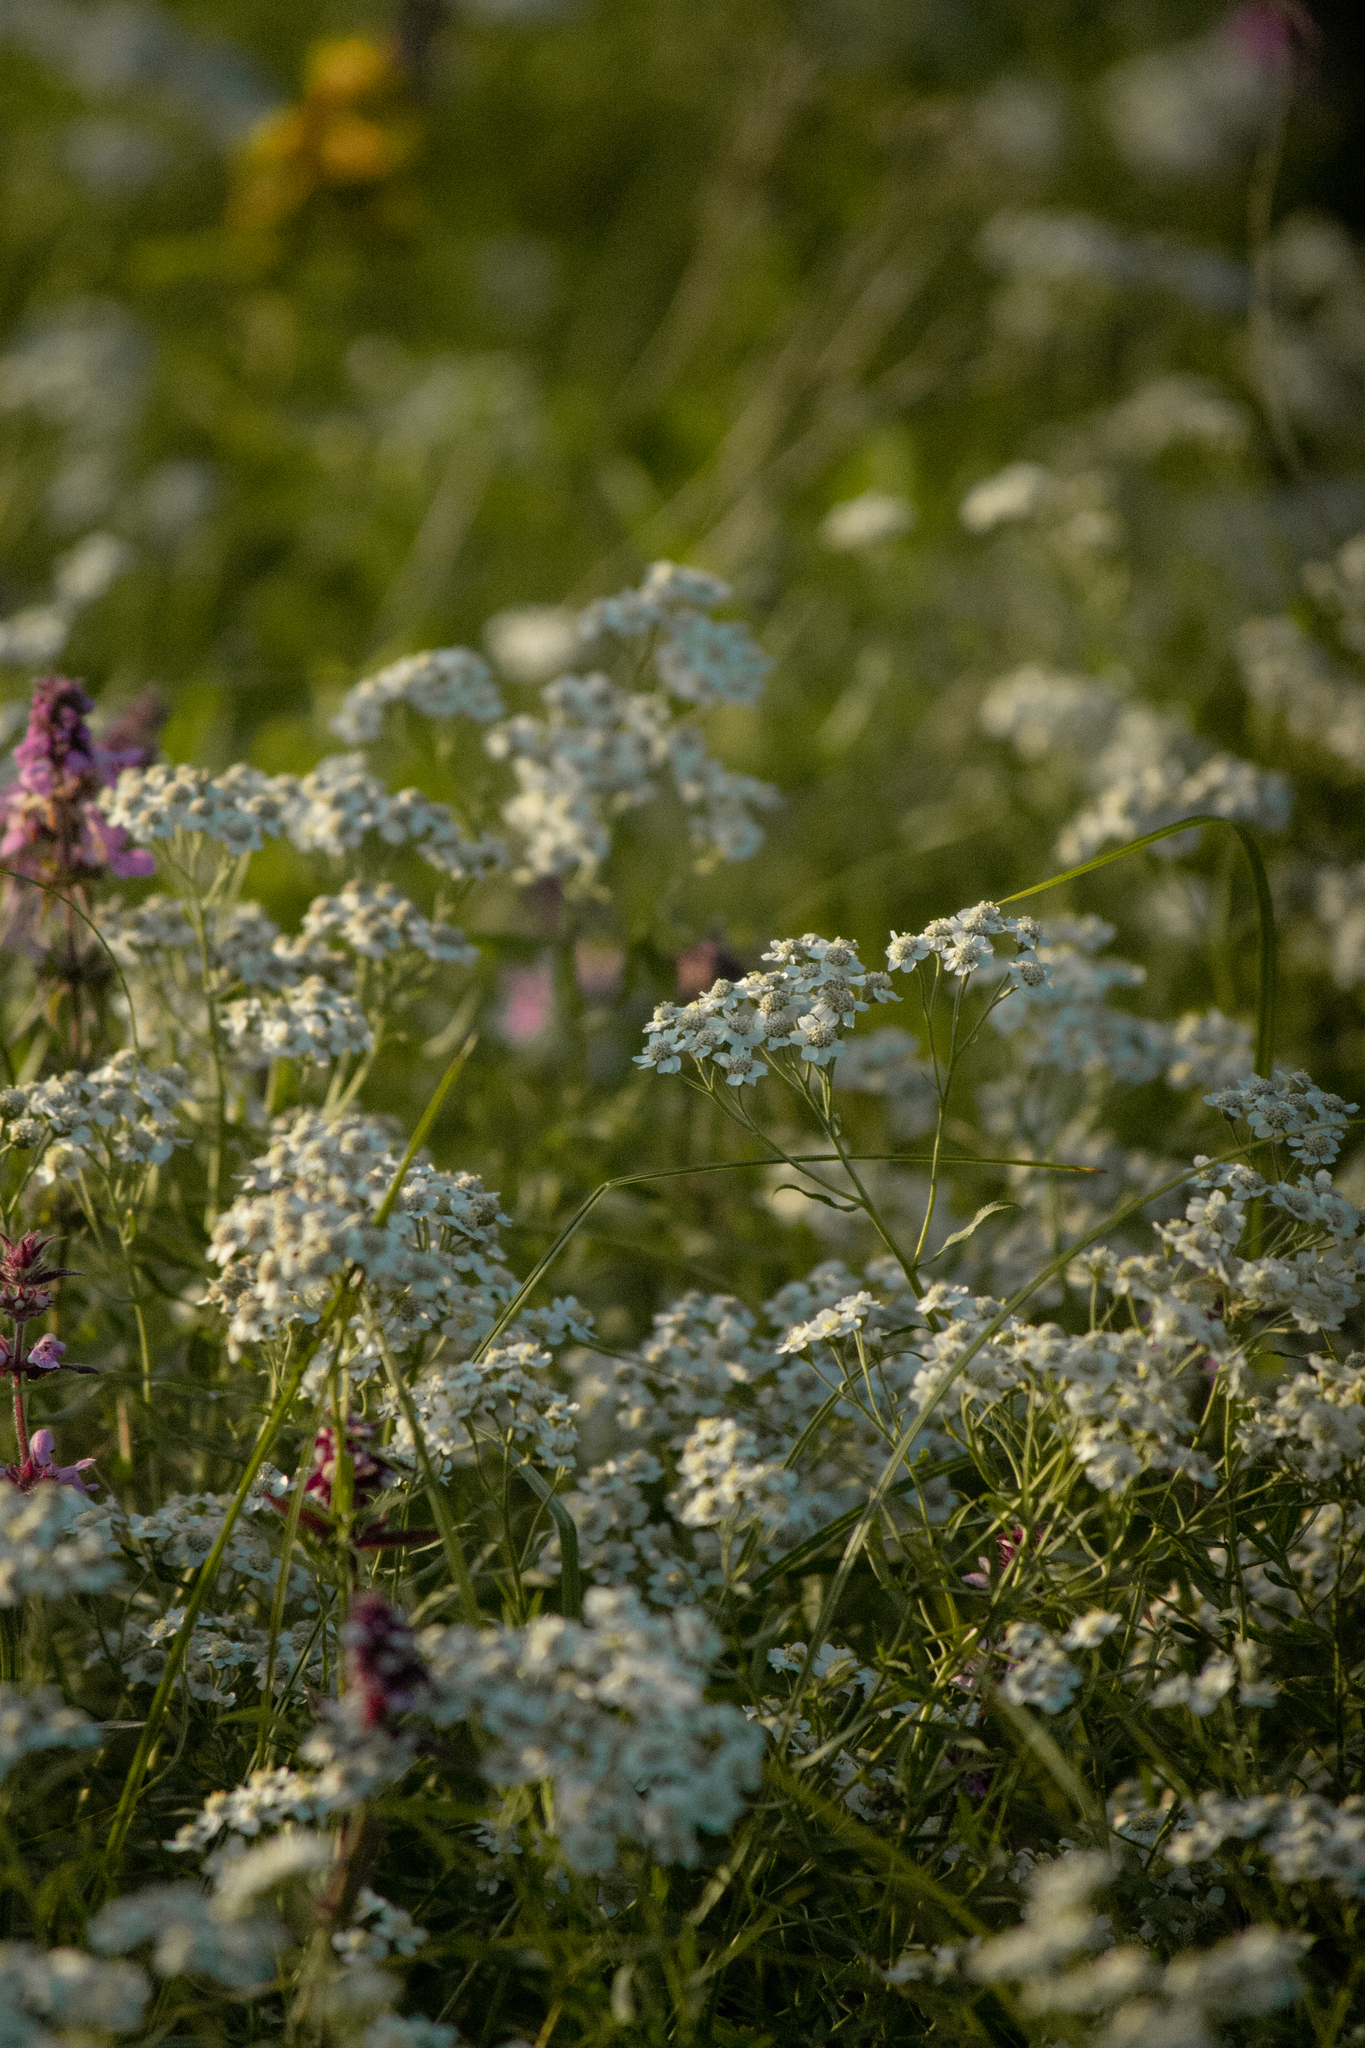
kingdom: Plantae
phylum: Tracheophyta
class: Magnoliopsida
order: Asterales
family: Asteraceae
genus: Achillea
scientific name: Achillea salicifolia
